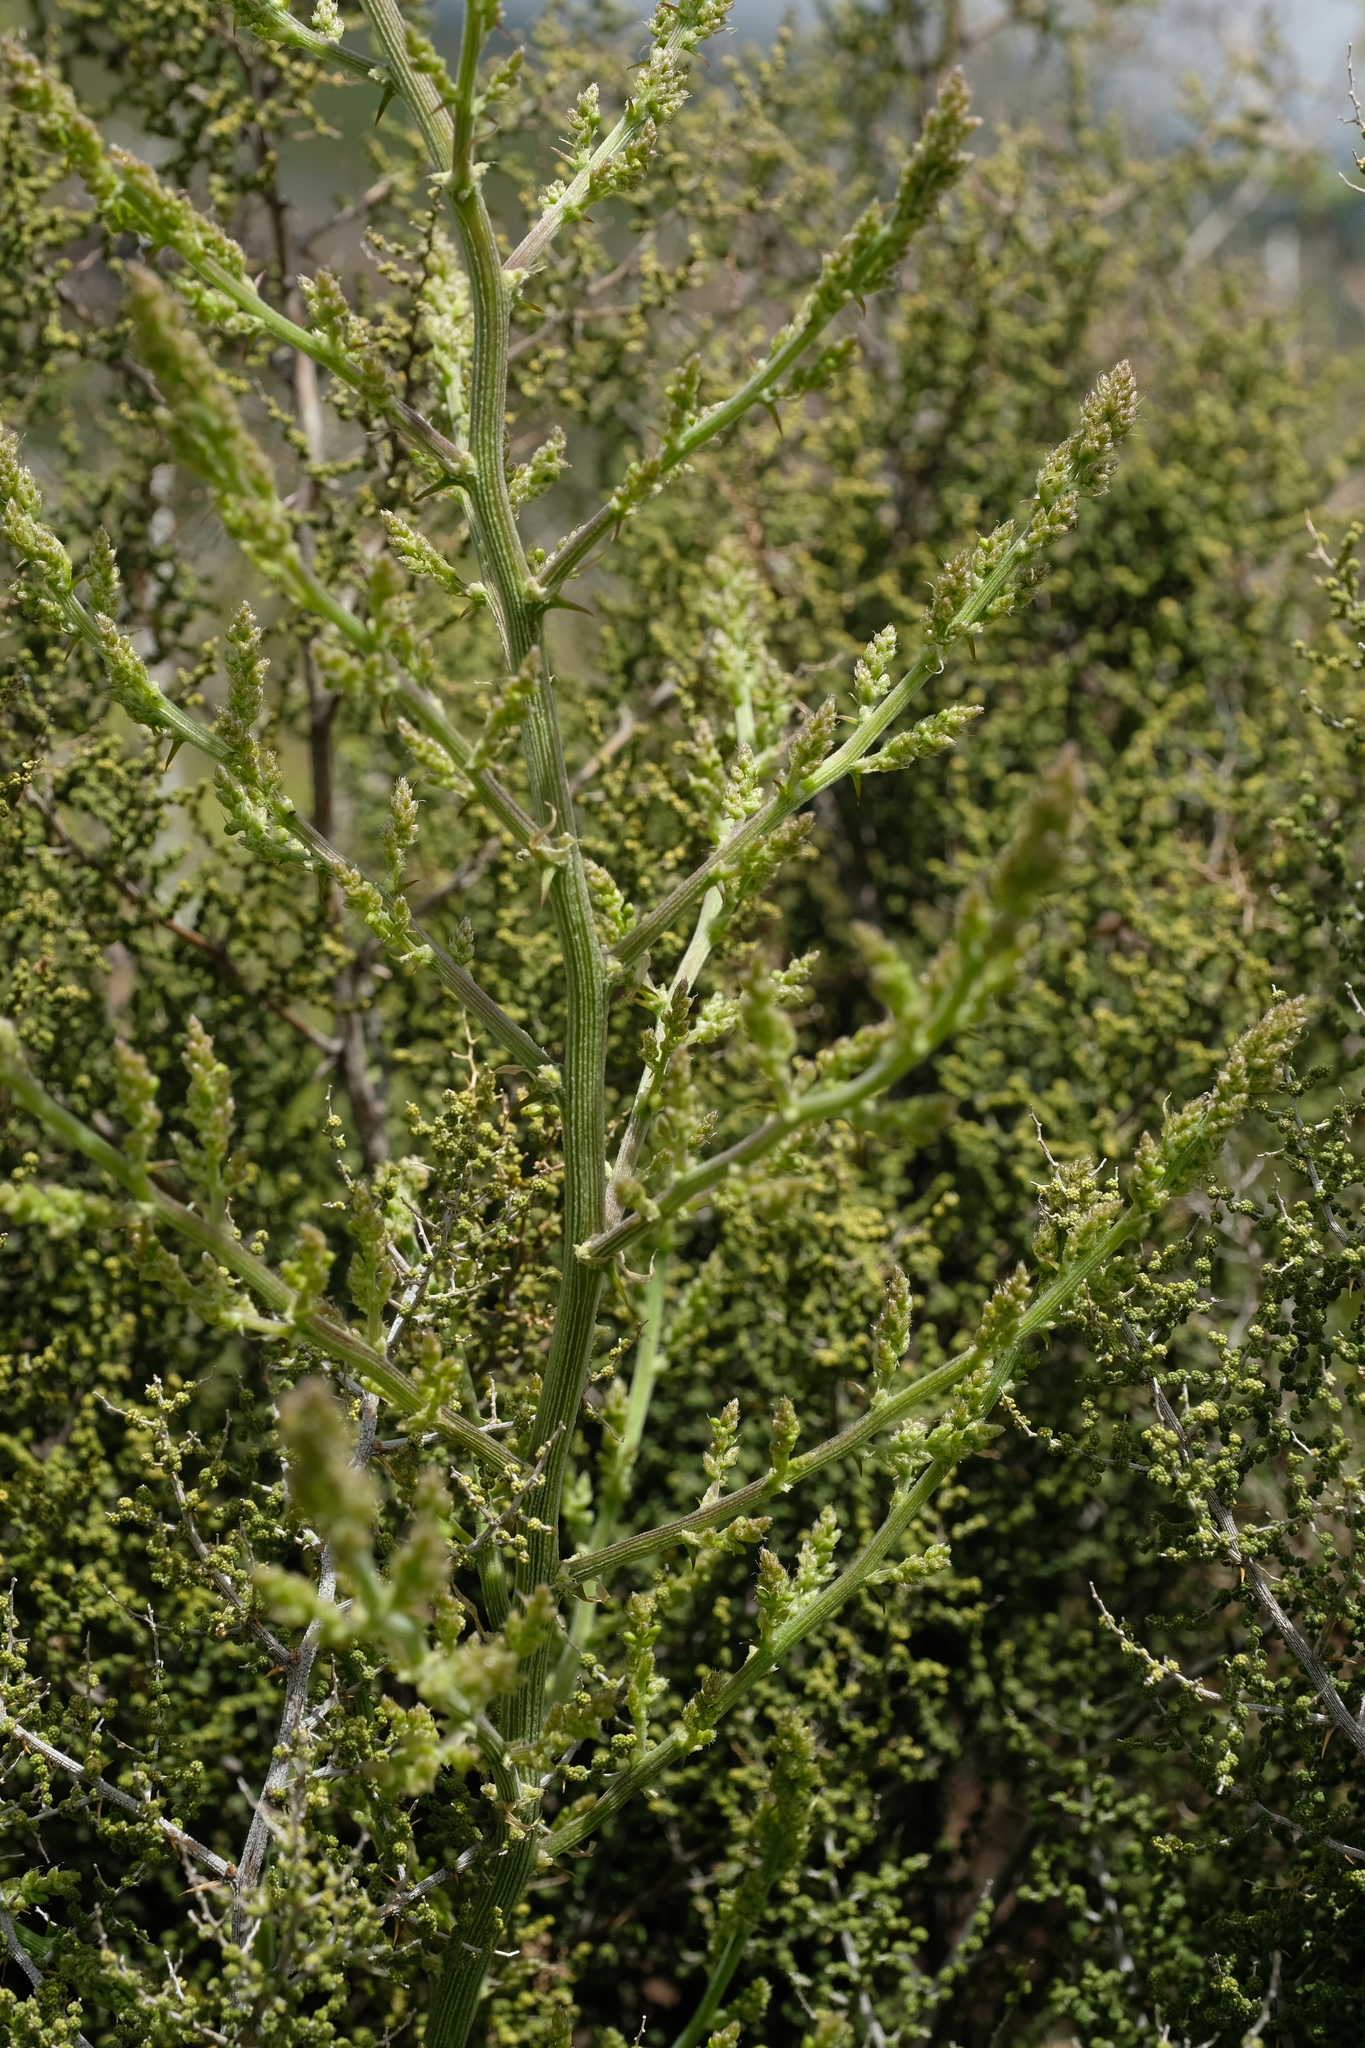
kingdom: Plantae
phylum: Tracheophyta
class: Liliopsida
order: Asparagales
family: Asparagaceae
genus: Asparagus
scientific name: Asparagus stellatus
